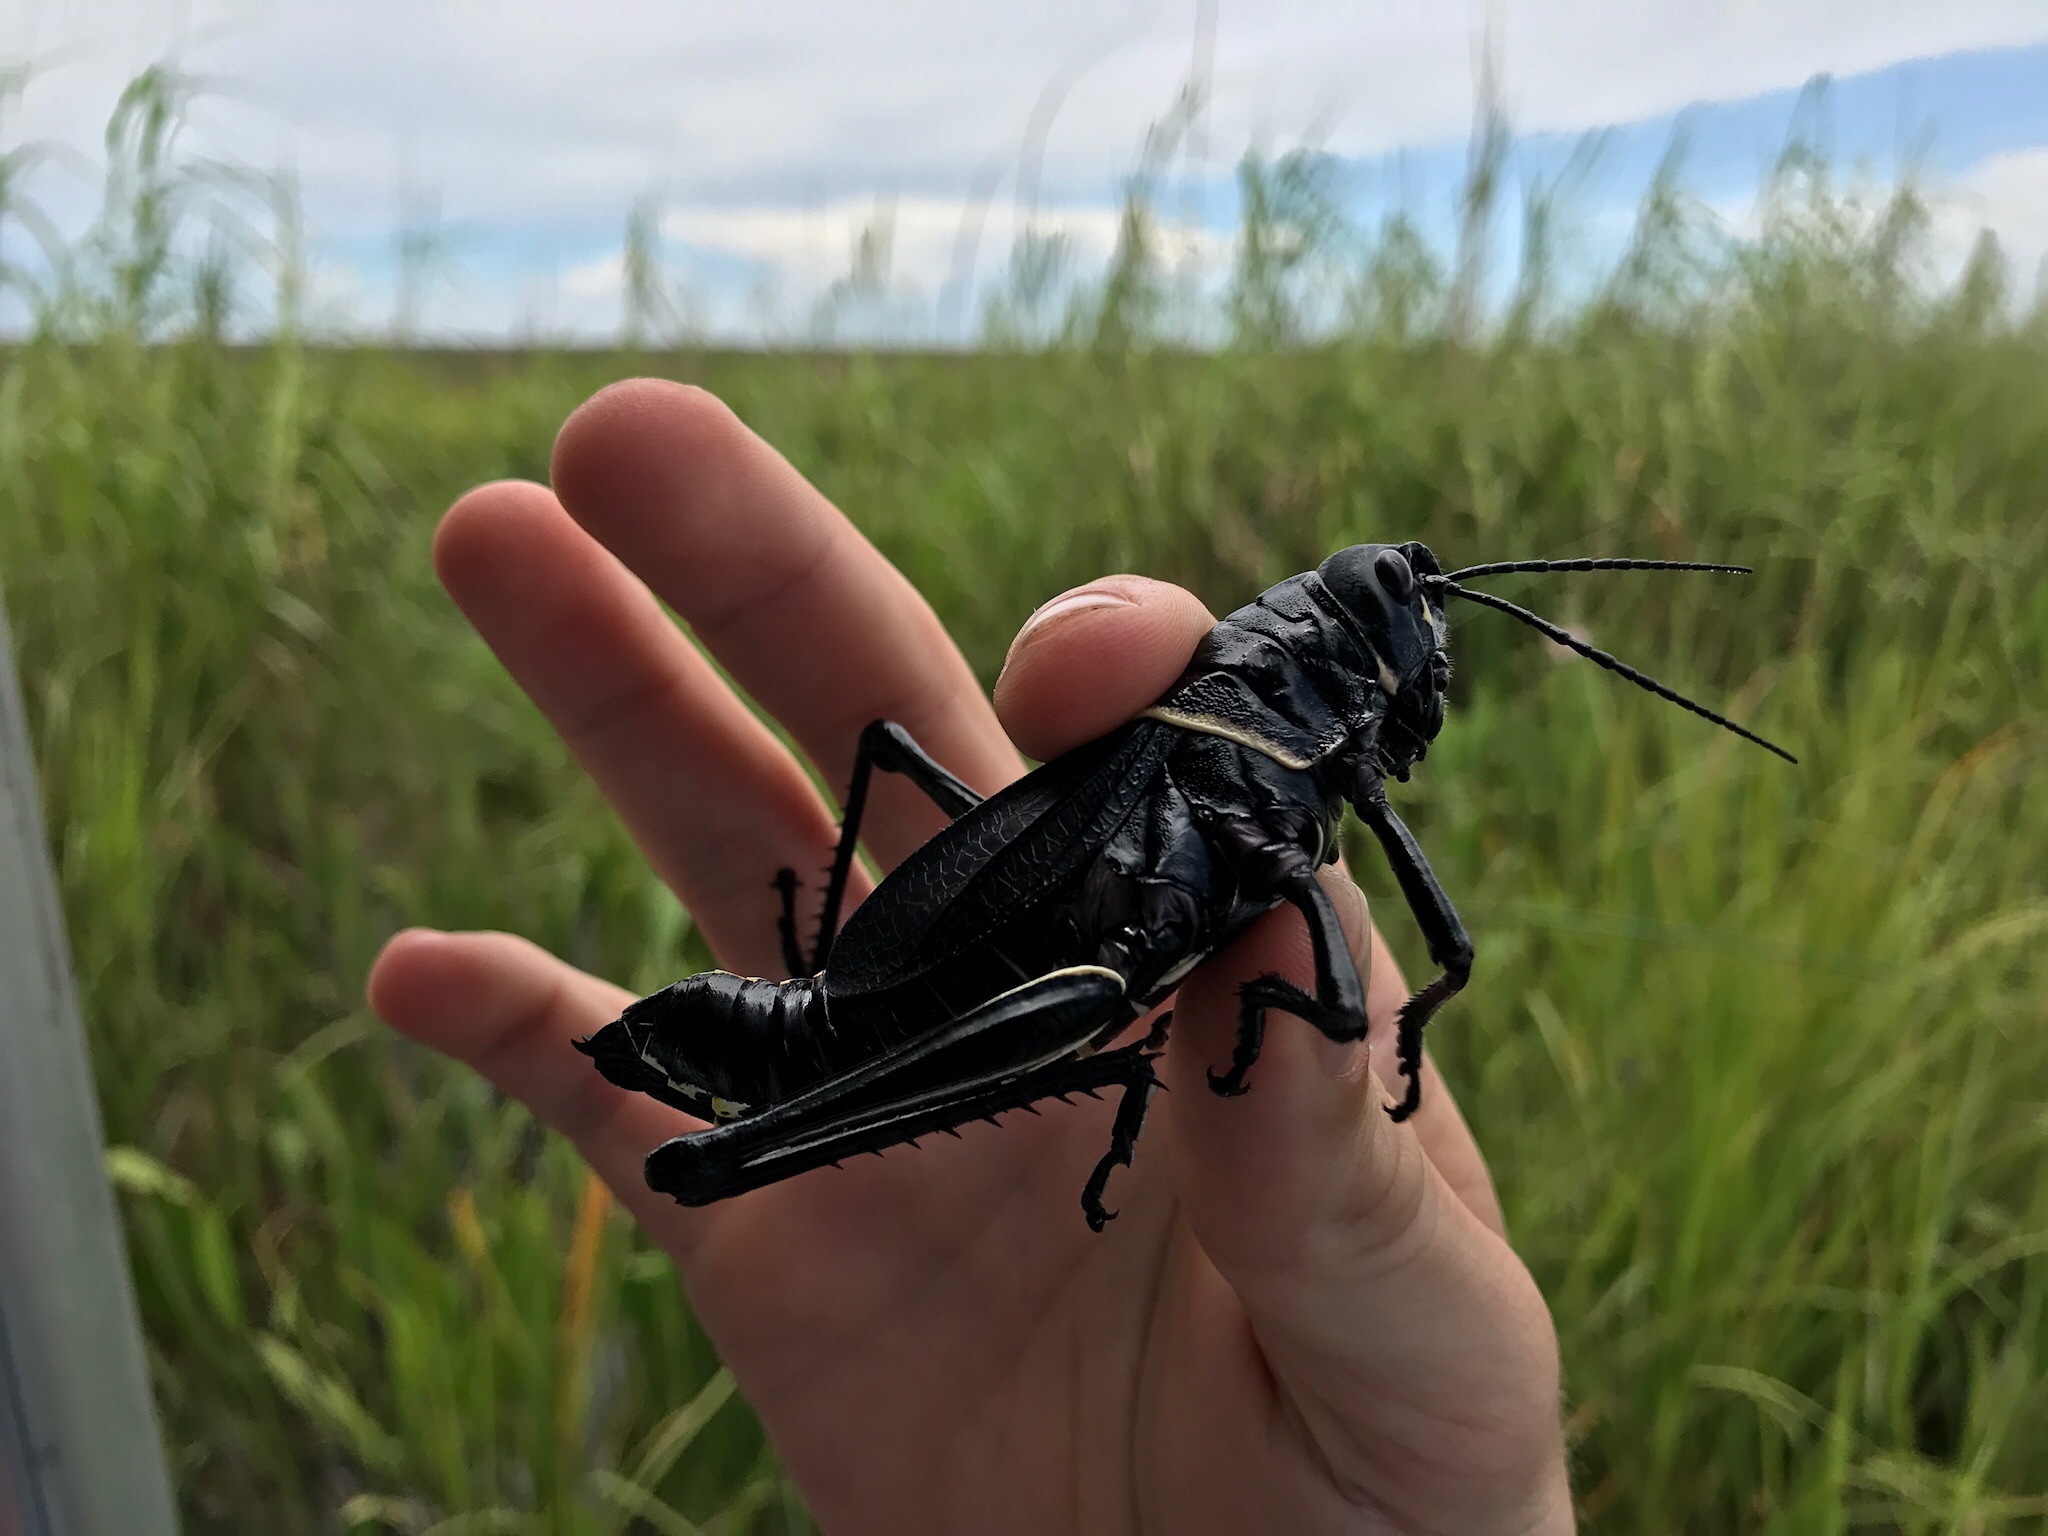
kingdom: Animalia
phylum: Arthropoda
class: Insecta
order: Orthoptera
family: Romaleidae
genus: Romalea
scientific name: Romalea microptera
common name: Eastern lubber grasshopper
